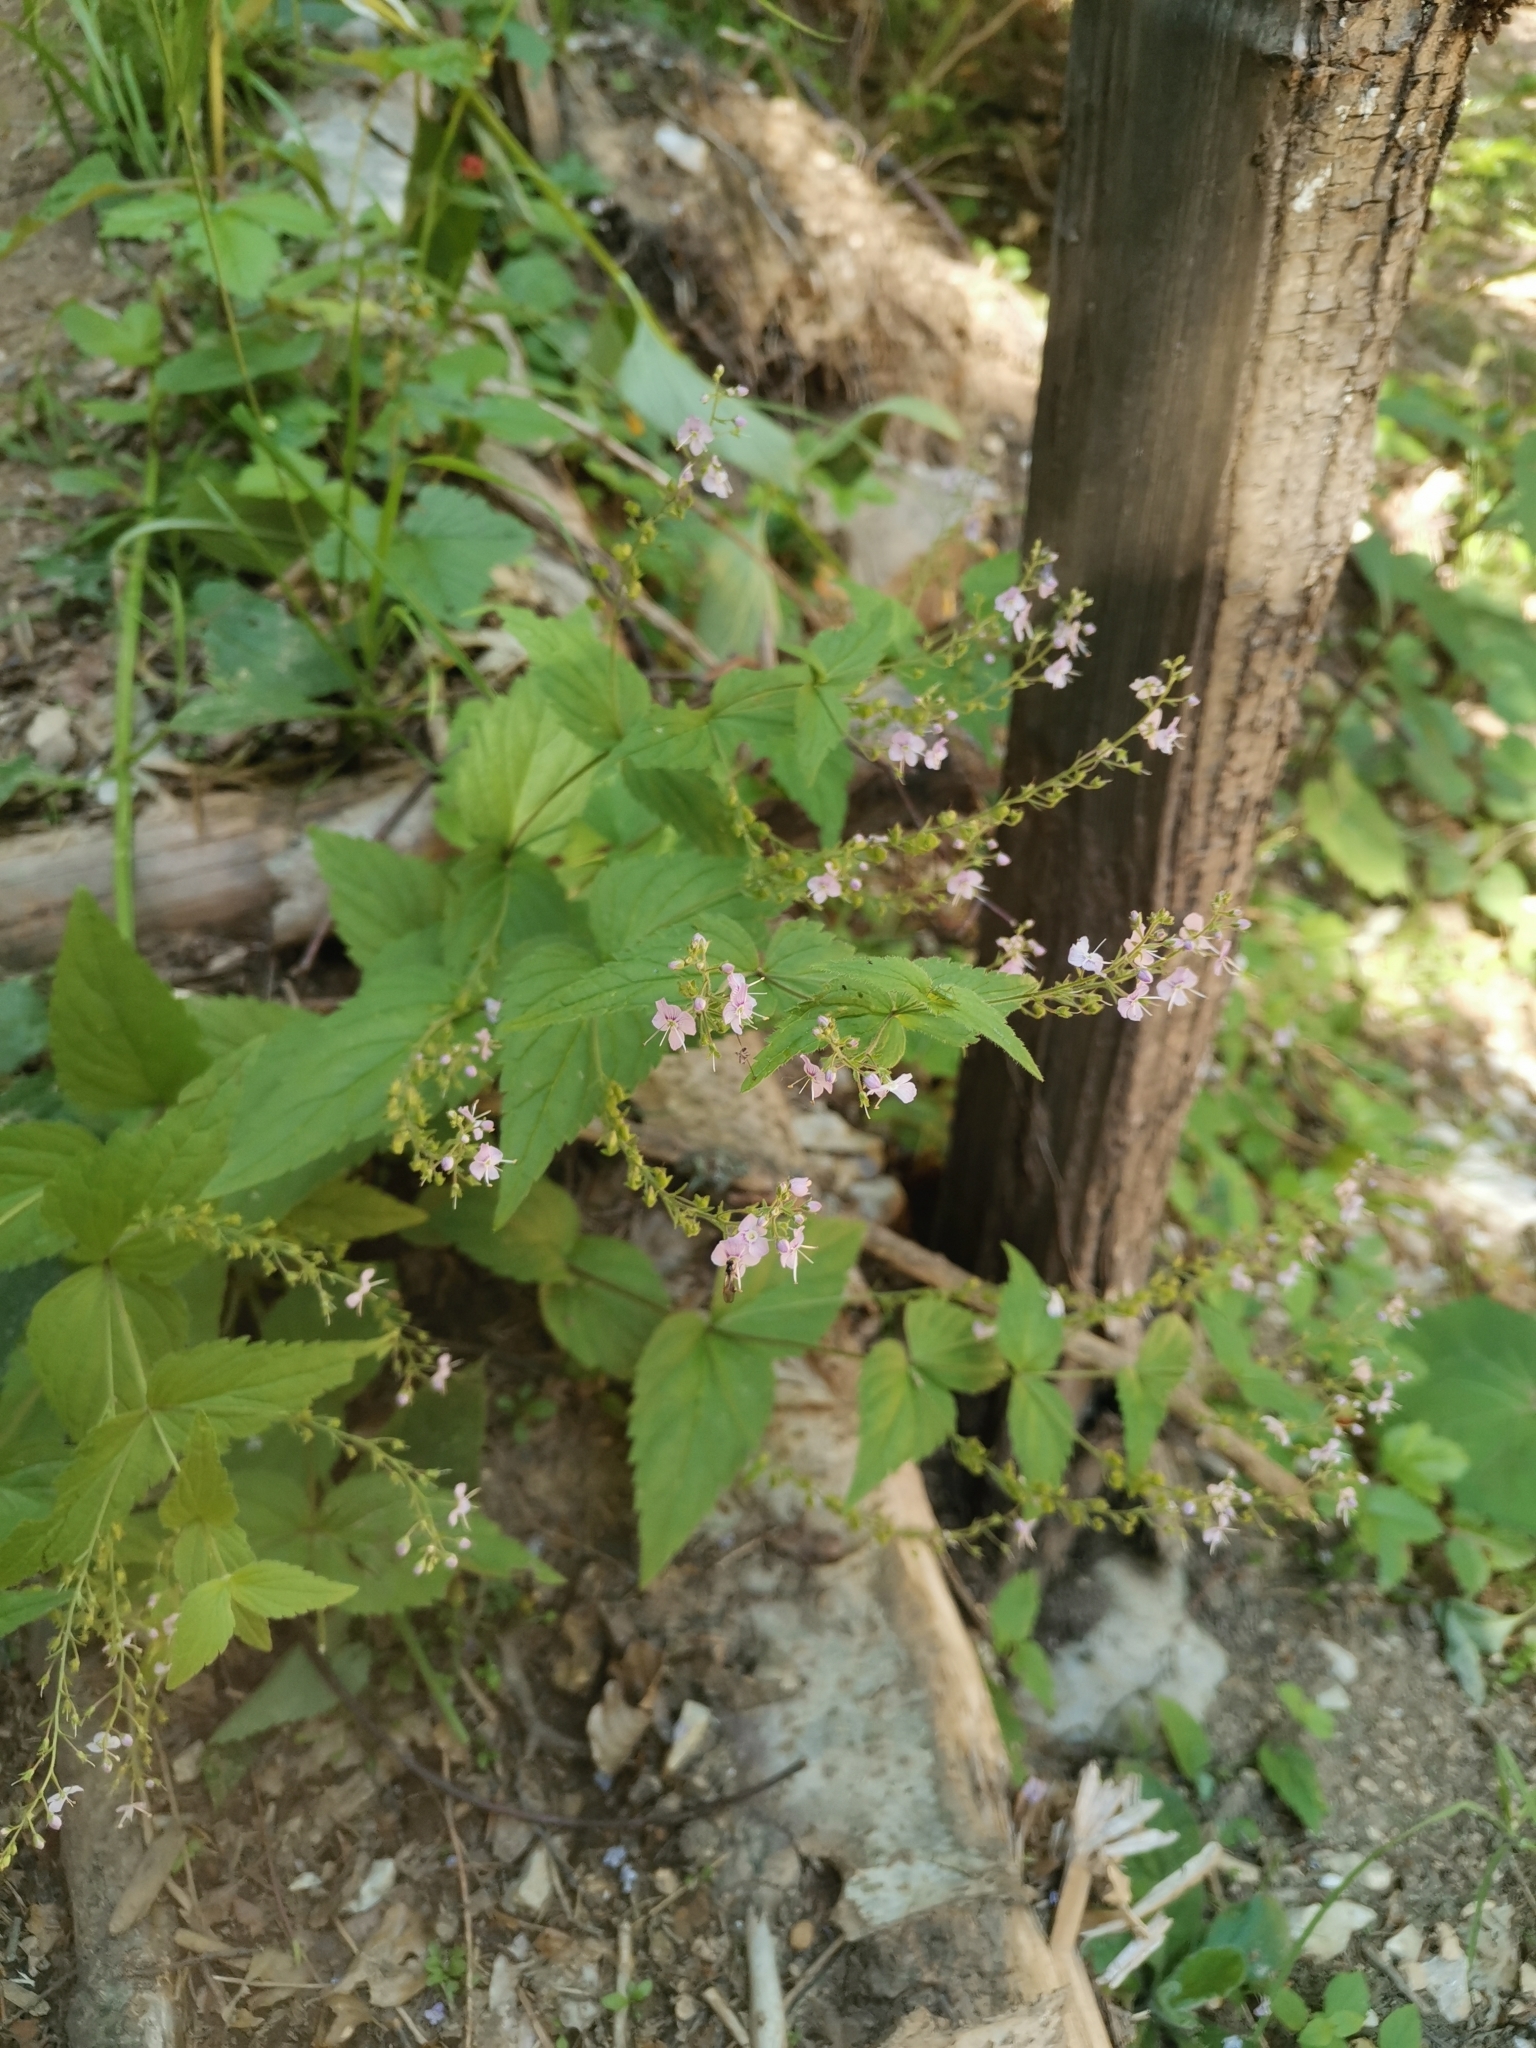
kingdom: Plantae
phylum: Tracheophyta
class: Magnoliopsida
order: Lamiales
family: Plantaginaceae
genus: Veronica
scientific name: Veronica urticifolia
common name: Nettle-leaf speedwell
